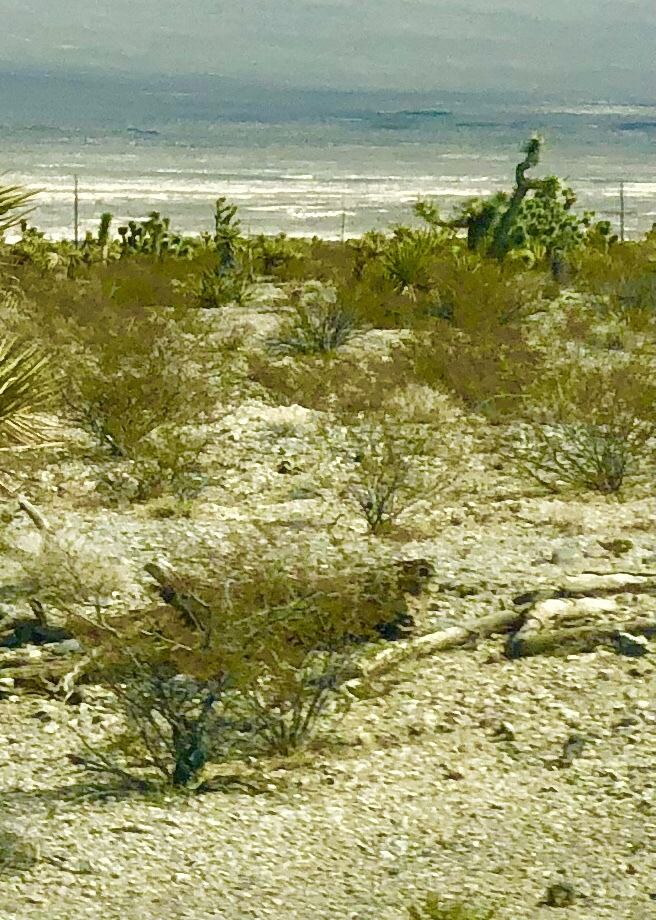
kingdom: Plantae
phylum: Tracheophyta
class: Magnoliopsida
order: Zygophyllales
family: Zygophyllaceae
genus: Larrea
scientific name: Larrea tridentata
